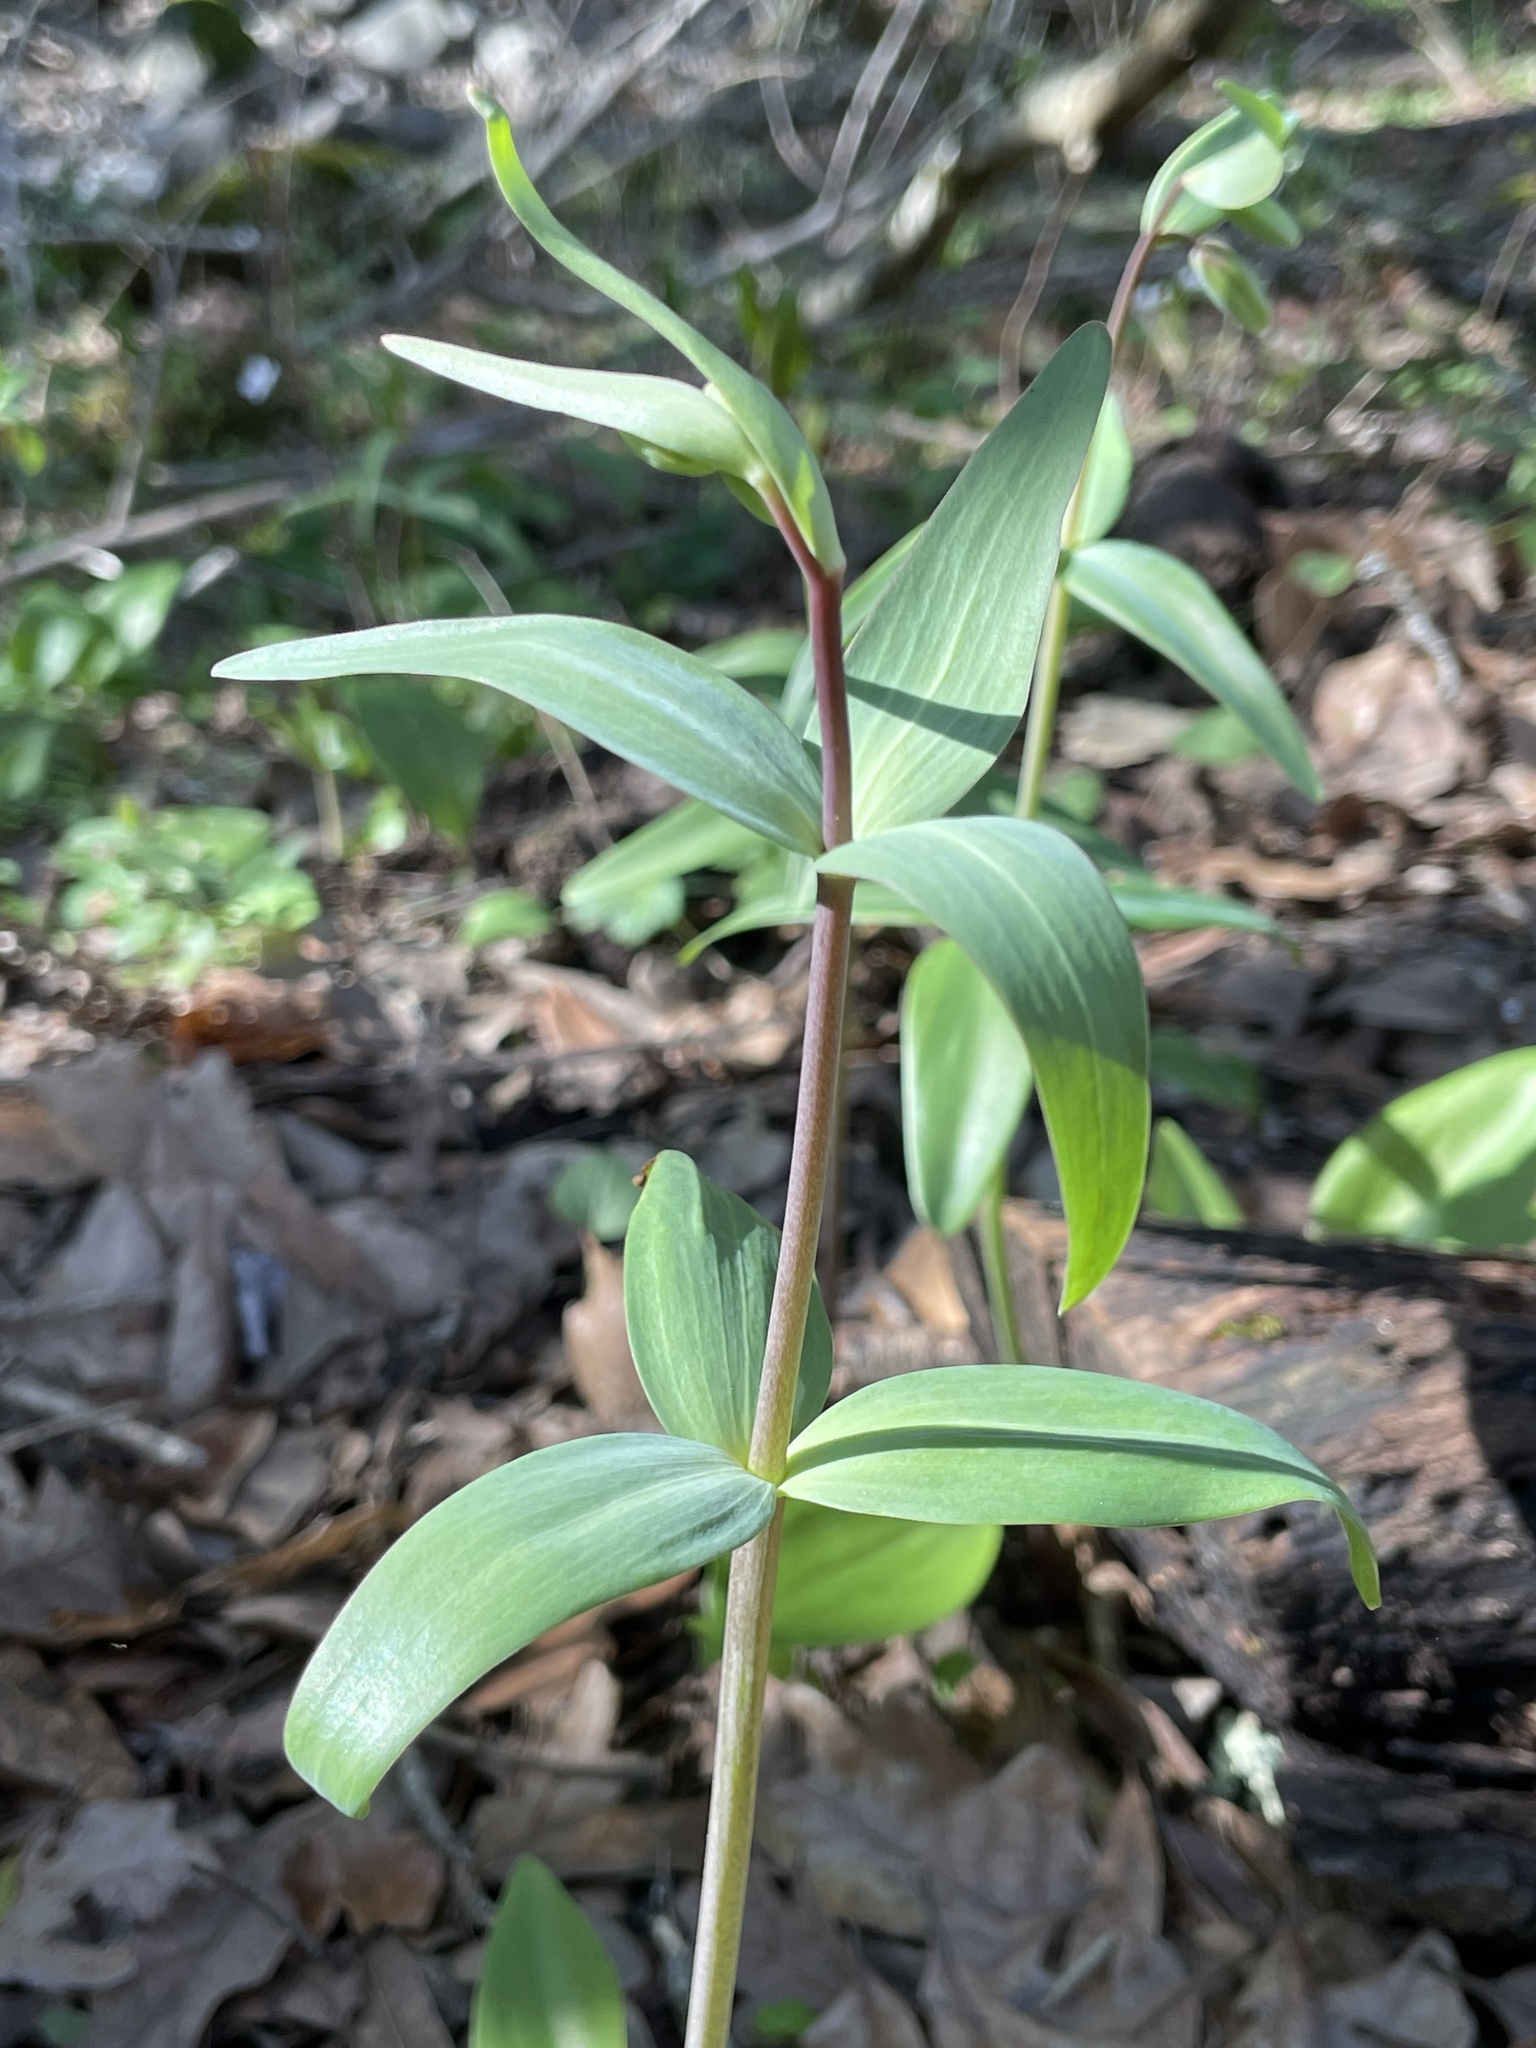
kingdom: Plantae
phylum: Tracheophyta
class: Liliopsida
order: Liliales
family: Liliaceae
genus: Fritillaria
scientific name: Fritillaria affinis
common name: Ojai fritillary
